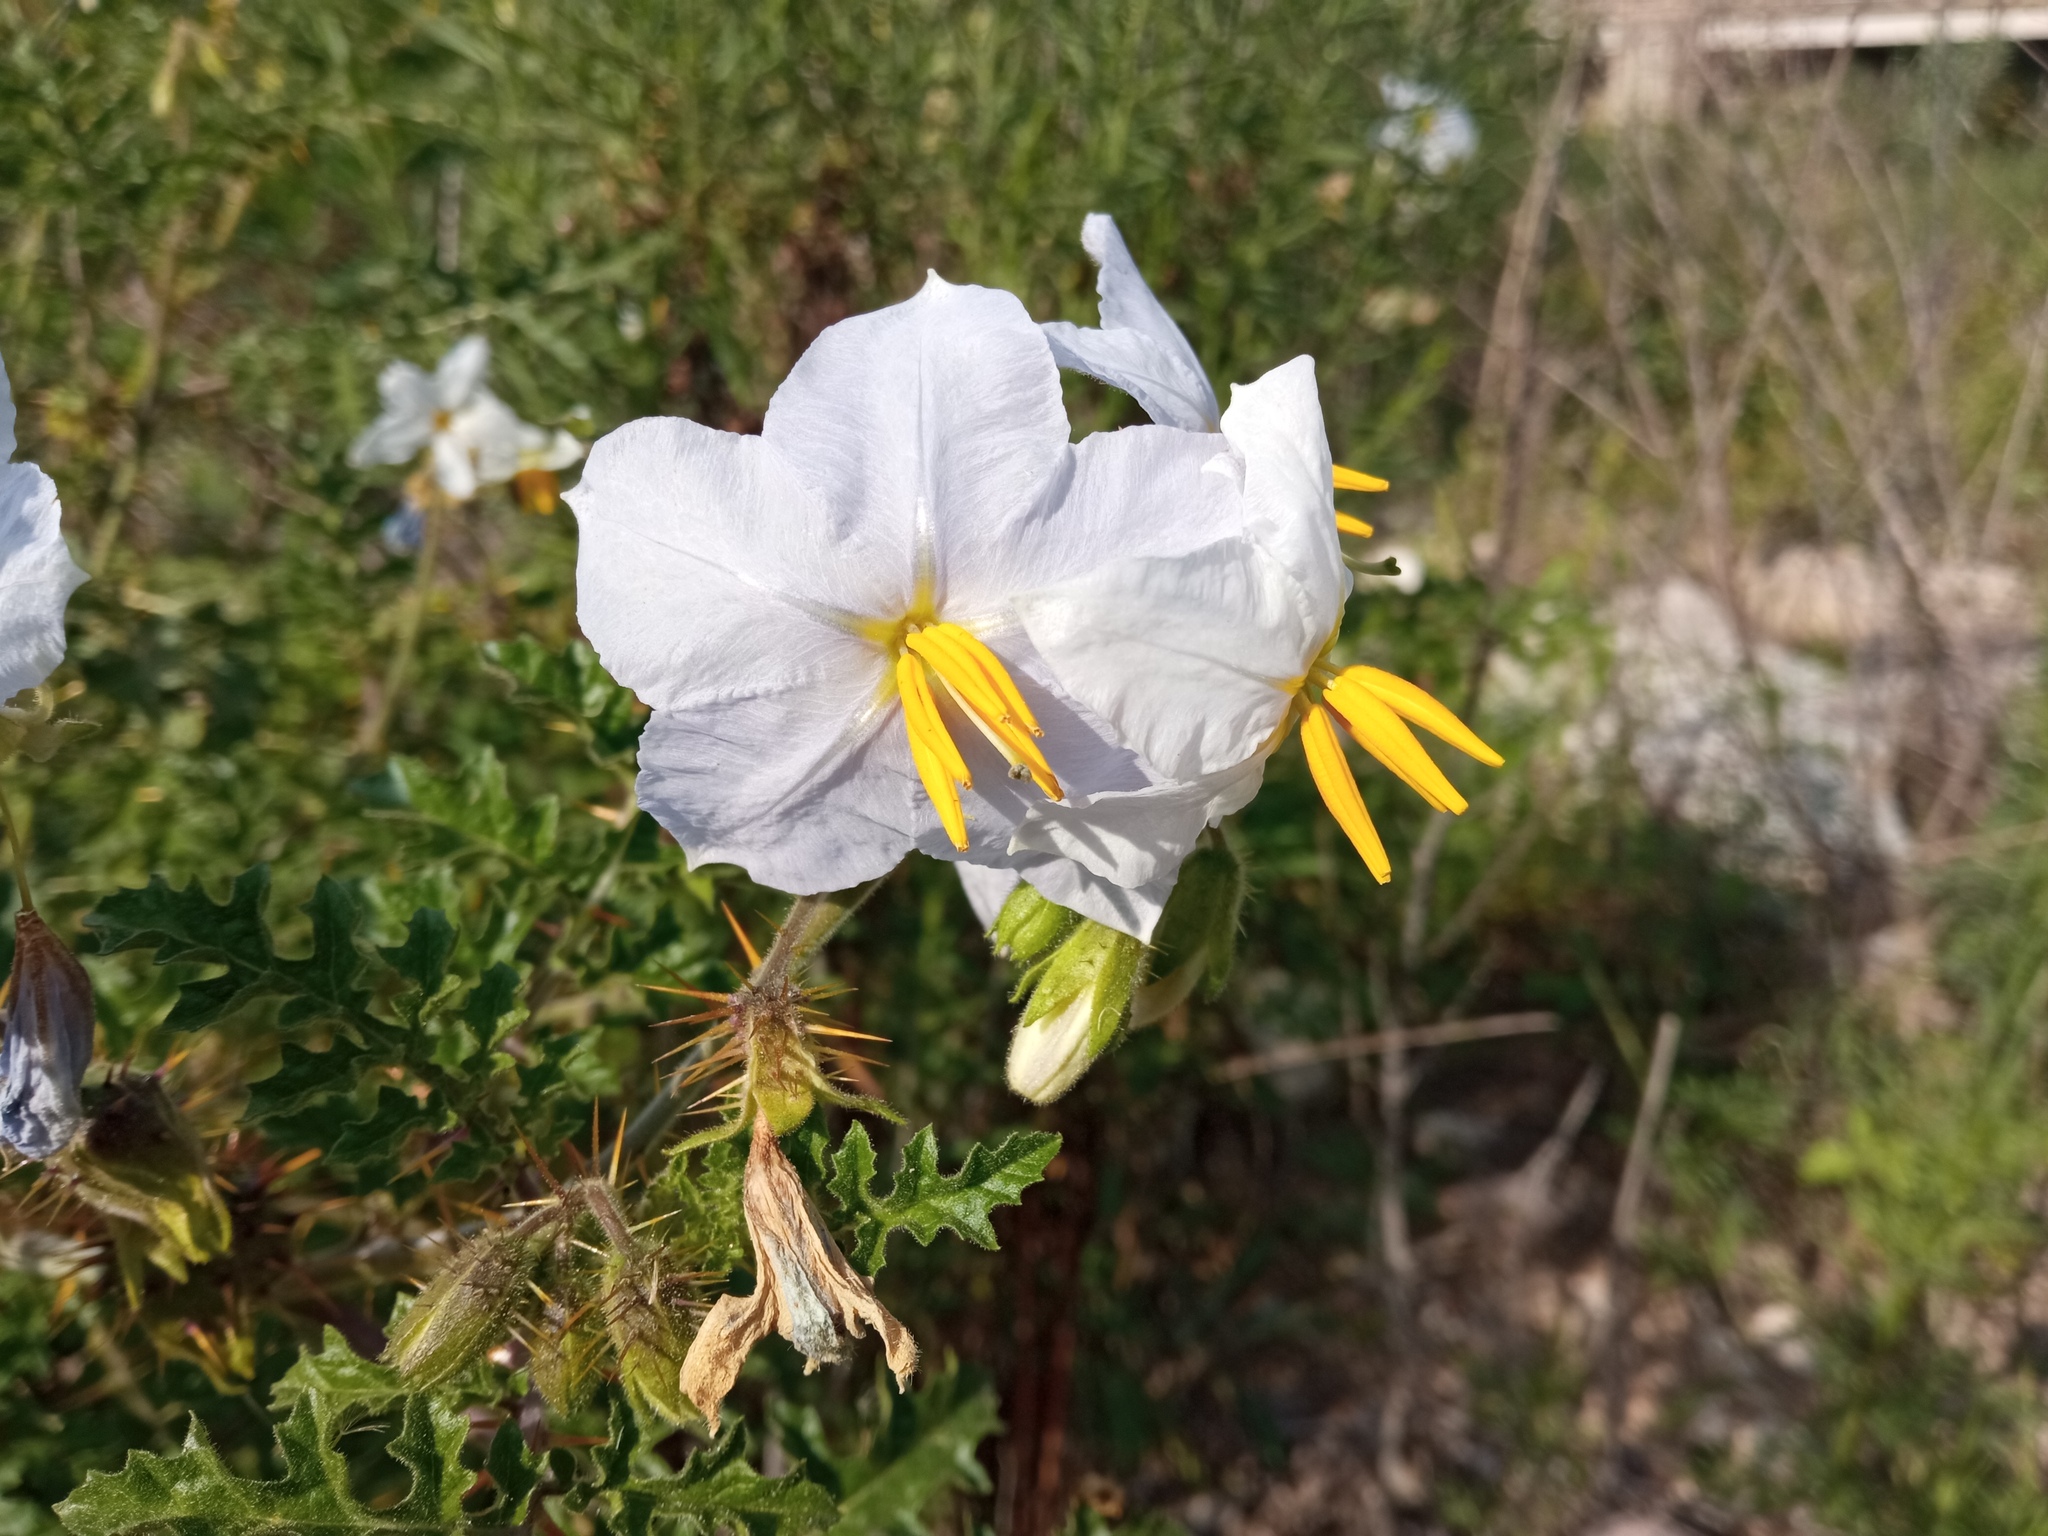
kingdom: Plantae
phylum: Tracheophyta
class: Magnoliopsida
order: Solanales
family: Solanaceae
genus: Solanum
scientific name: Solanum sisymbriifolium
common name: Red buffalo-bur
